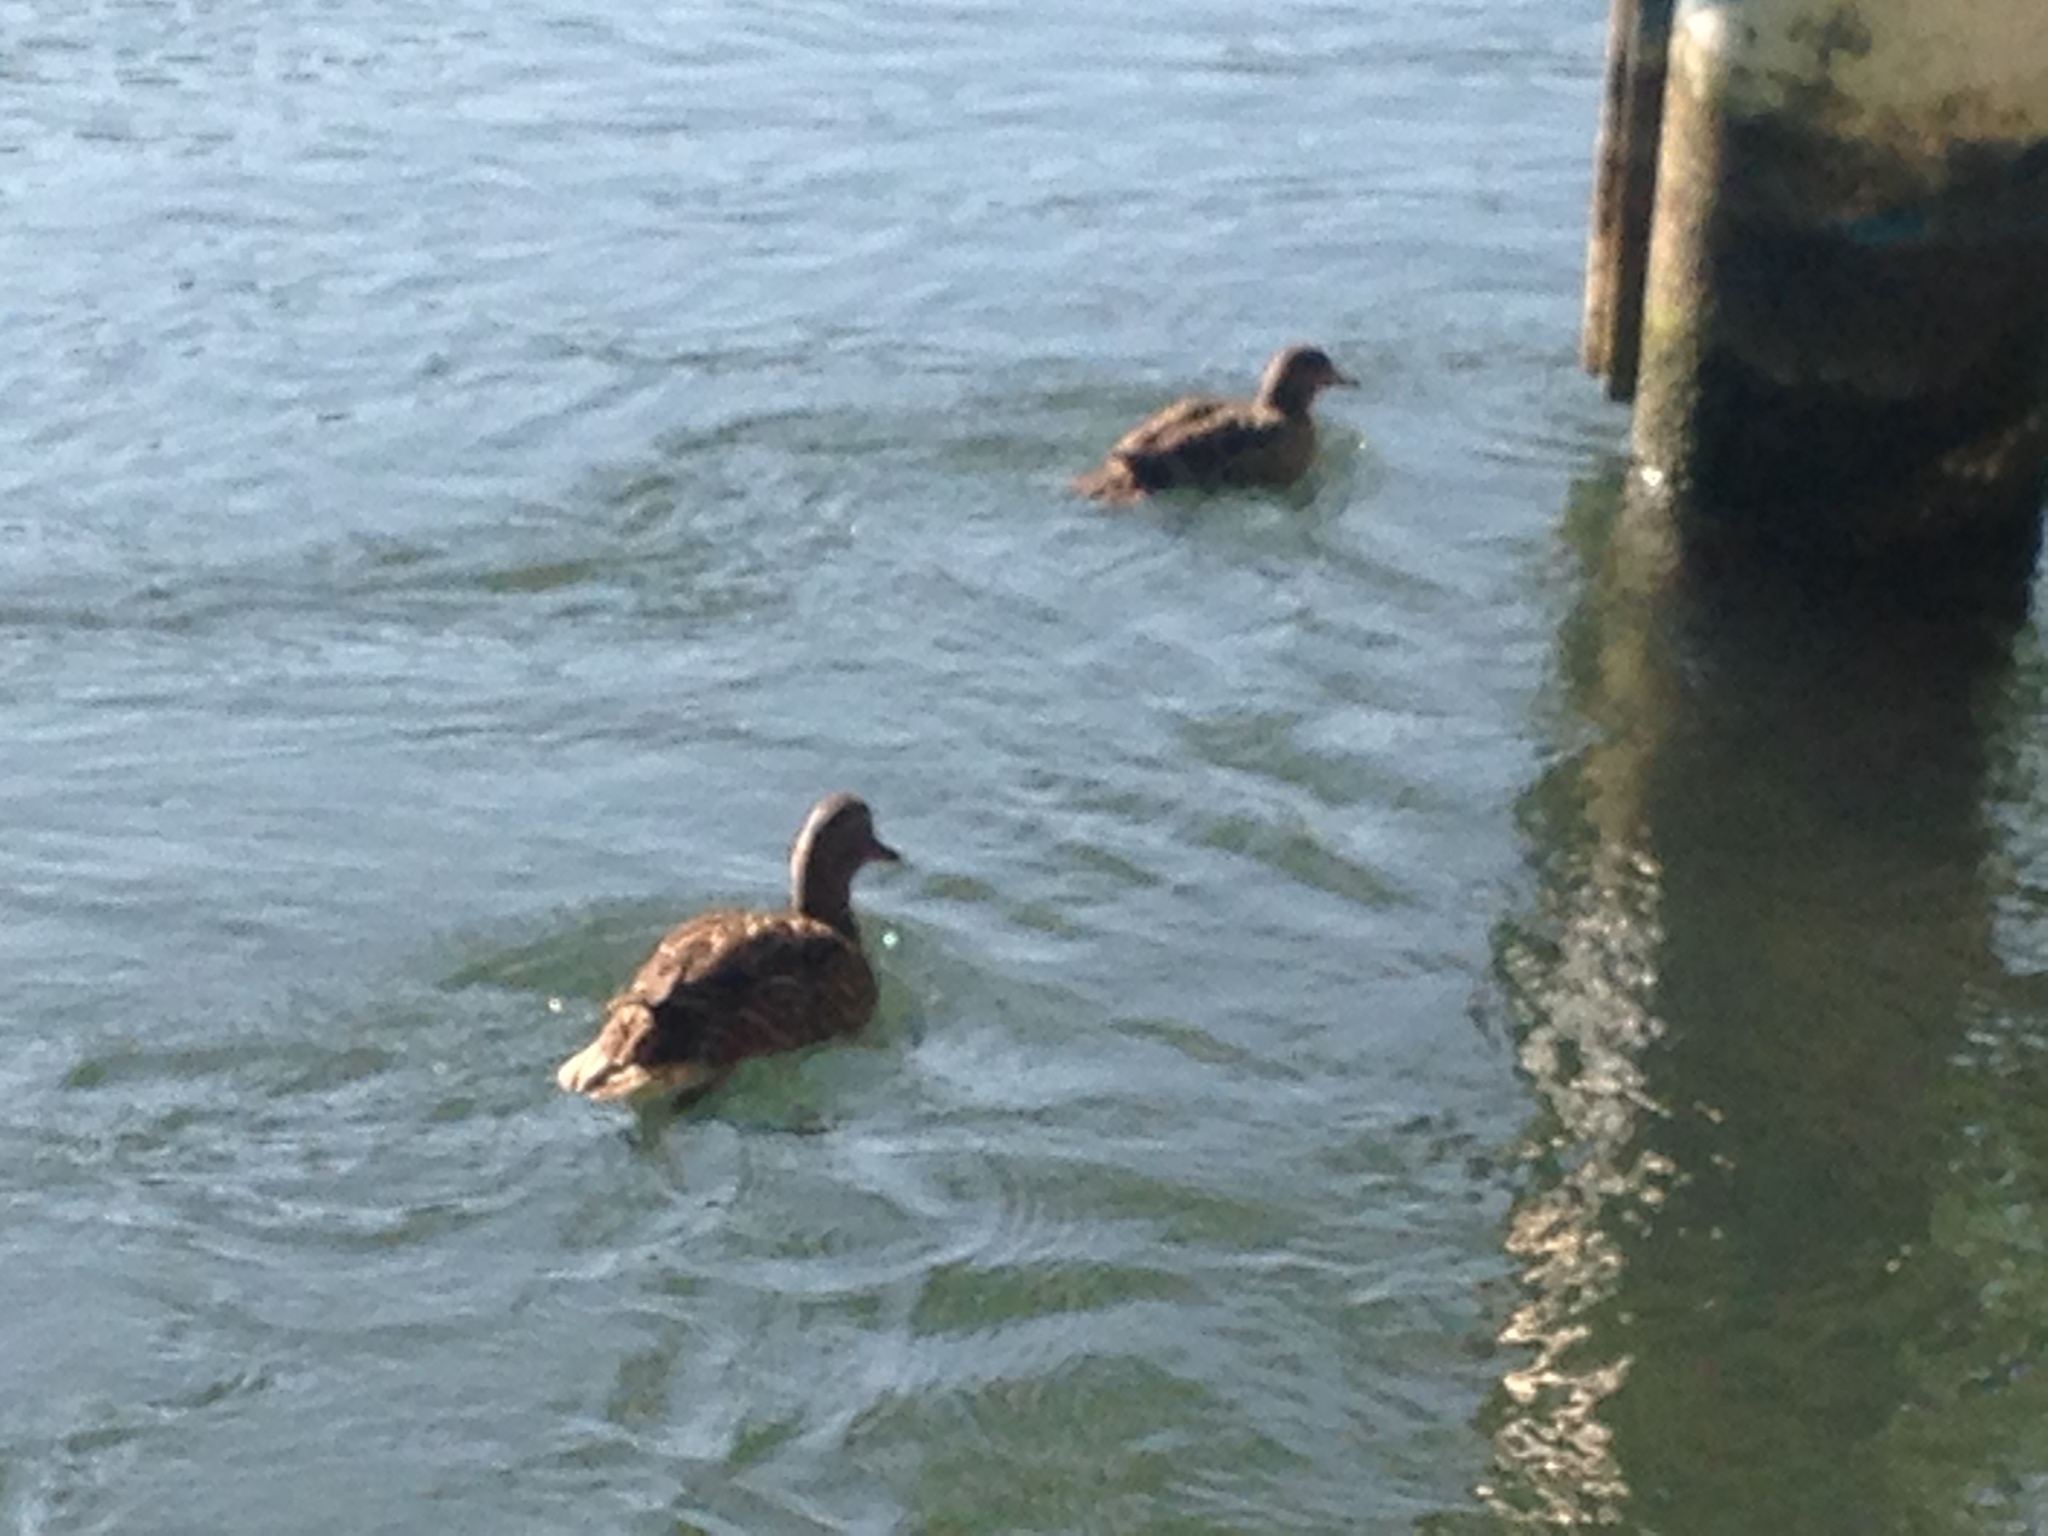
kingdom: Animalia
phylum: Chordata
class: Aves
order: Anseriformes
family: Anatidae
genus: Spatula
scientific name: Spatula querquedula
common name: Garganey
